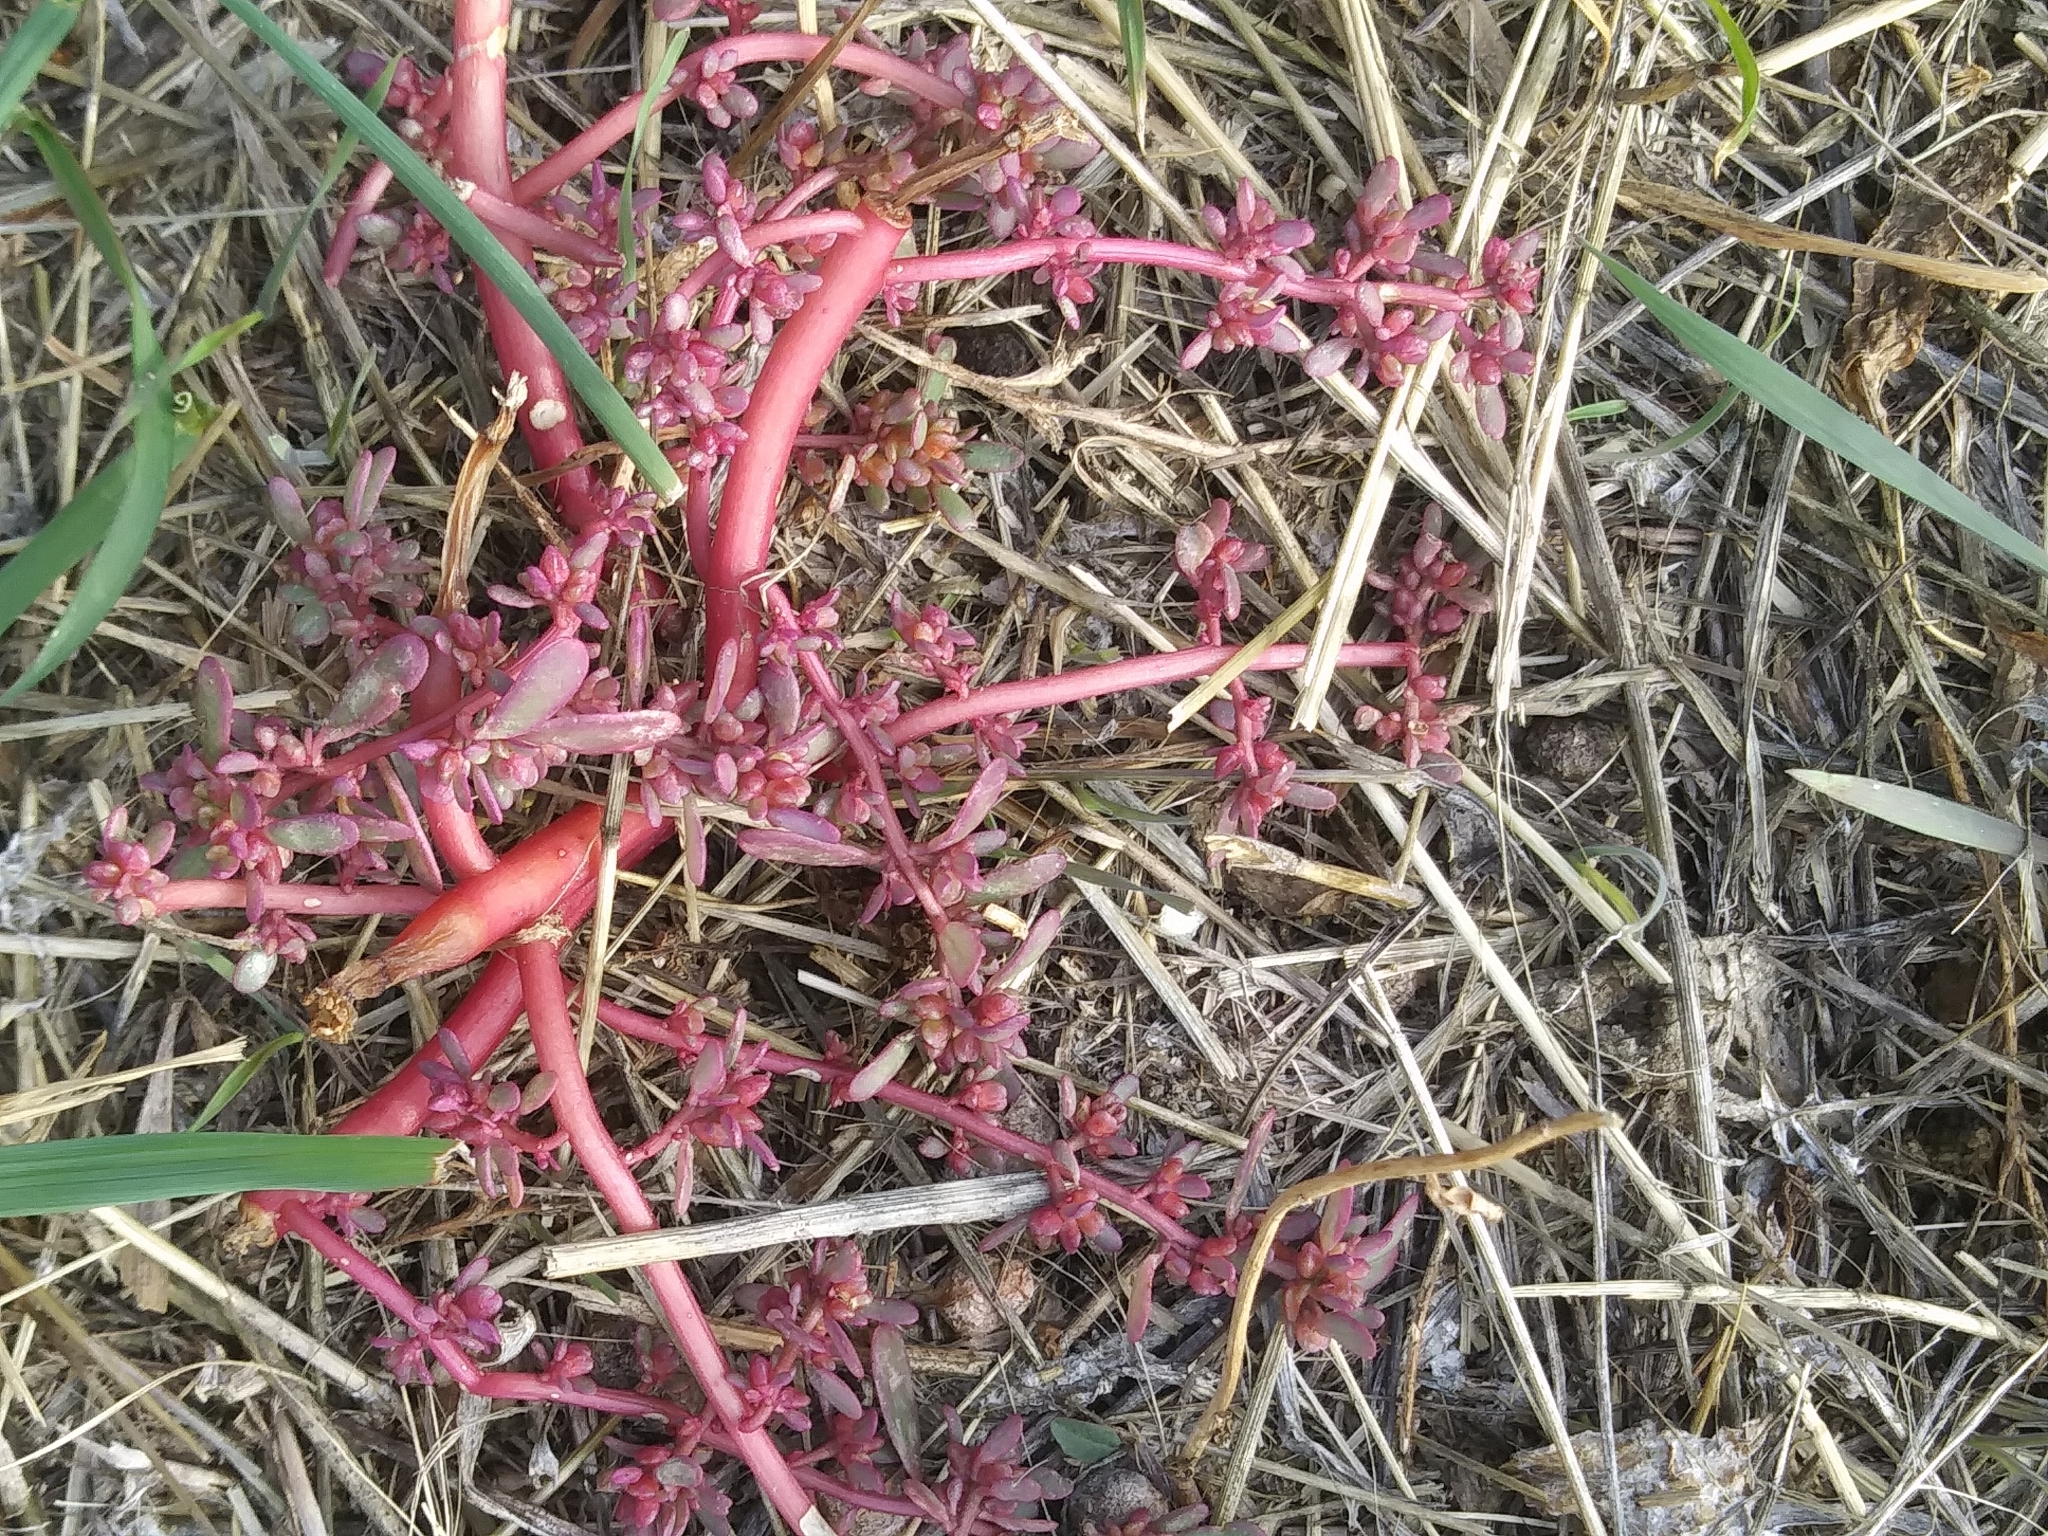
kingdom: Plantae
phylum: Tracheophyta
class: Magnoliopsida
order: Caryophyllales
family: Portulacaceae
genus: Portulaca
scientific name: Portulaca oleracea
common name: Common purslane
